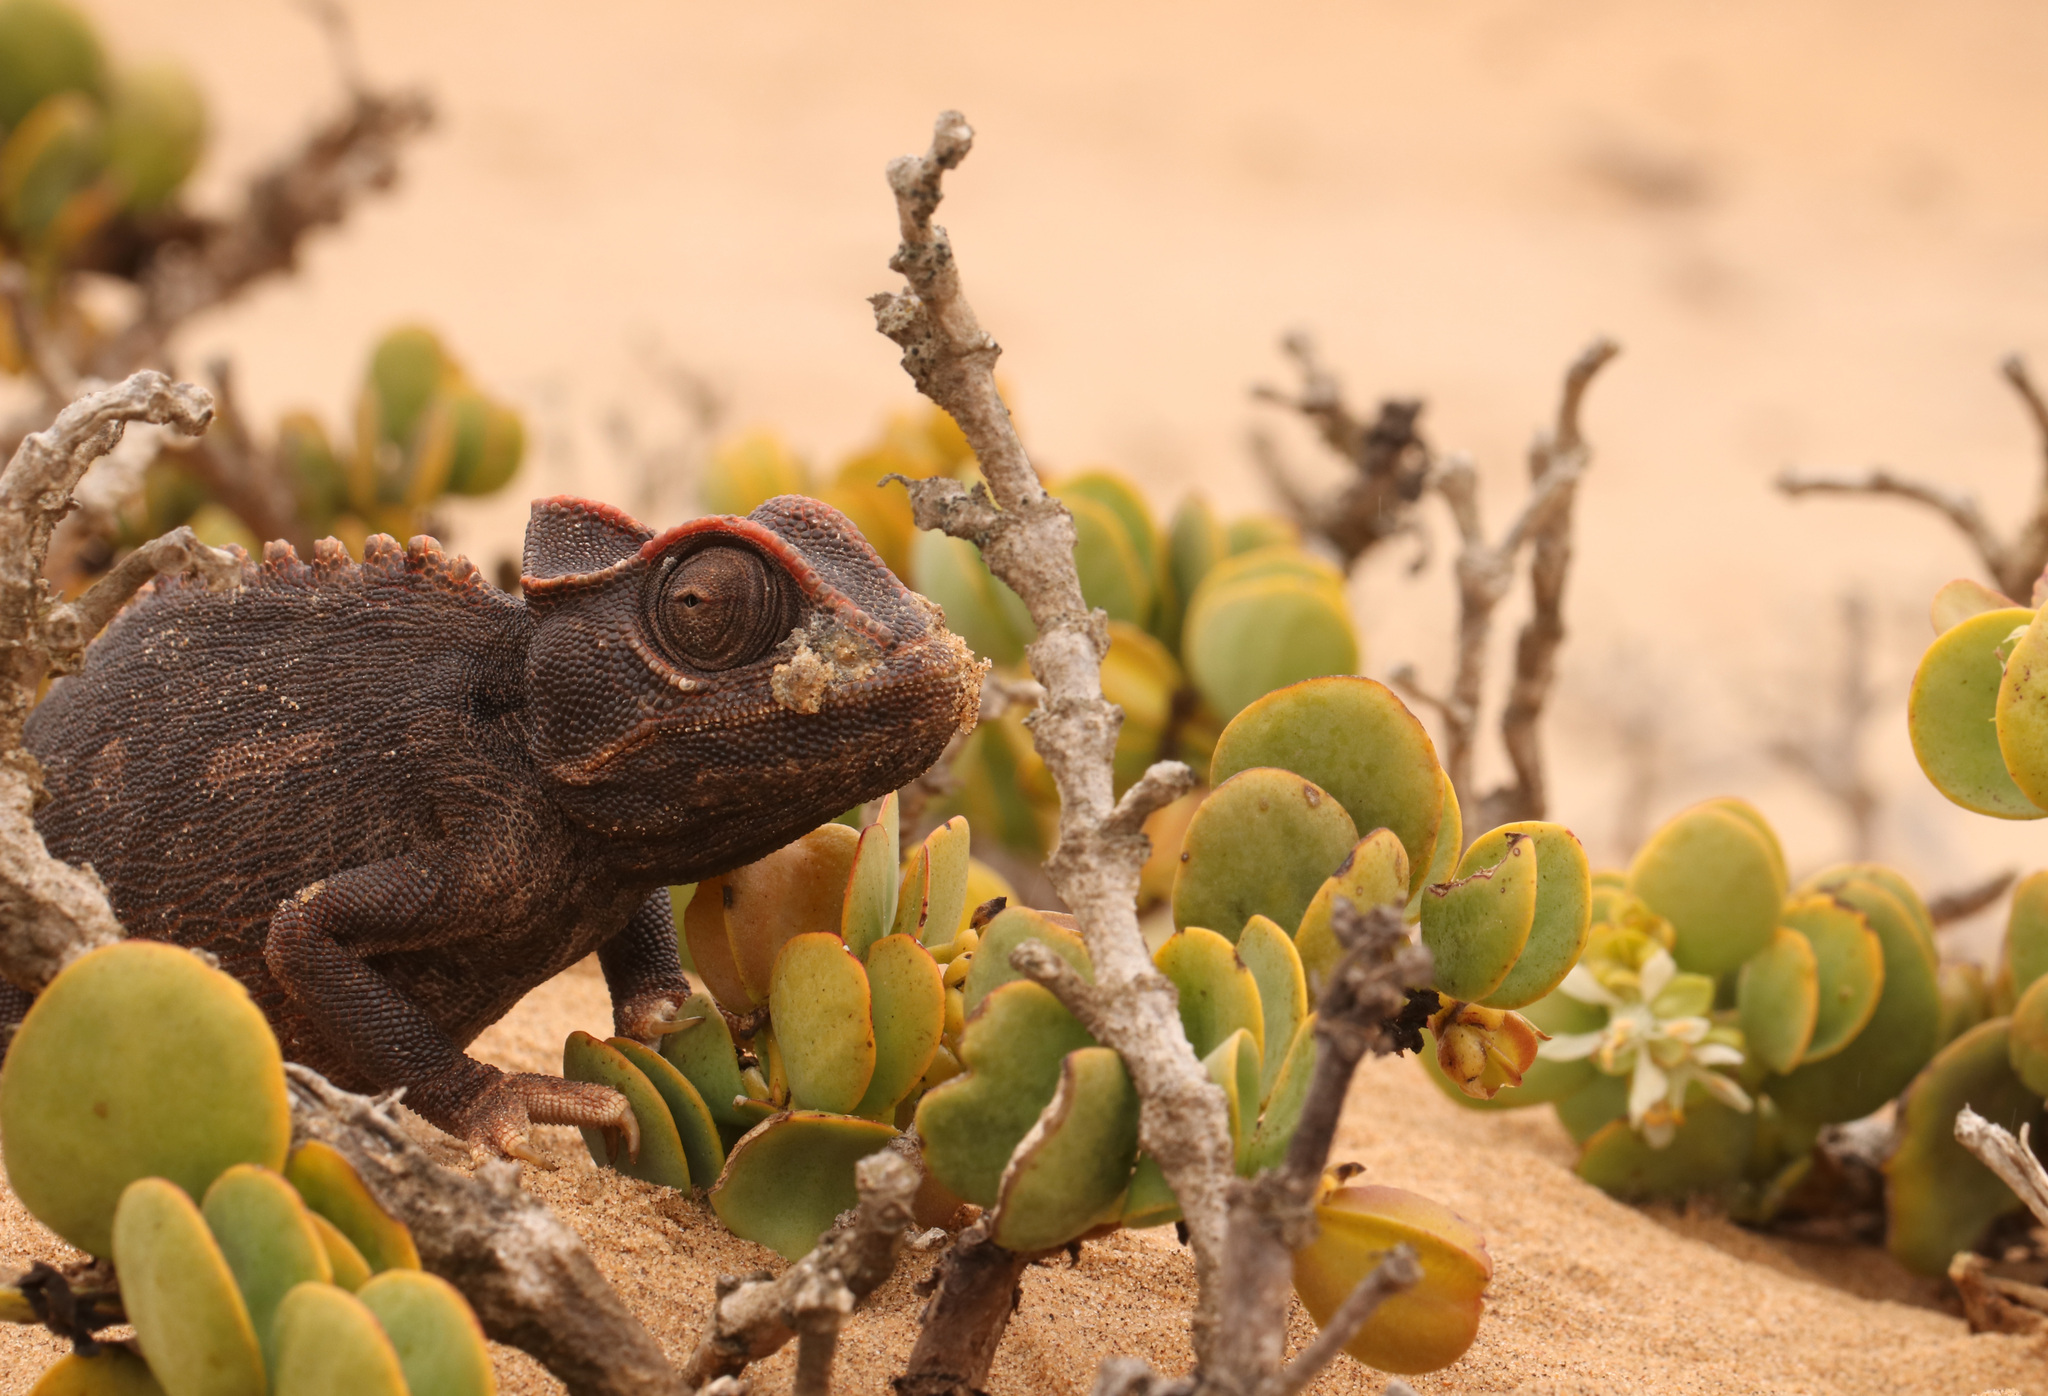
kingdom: Animalia
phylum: Chordata
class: Squamata
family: Chamaeleonidae
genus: Chamaeleo
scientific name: Chamaeleo namaquensis
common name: Namaqua chameleon
